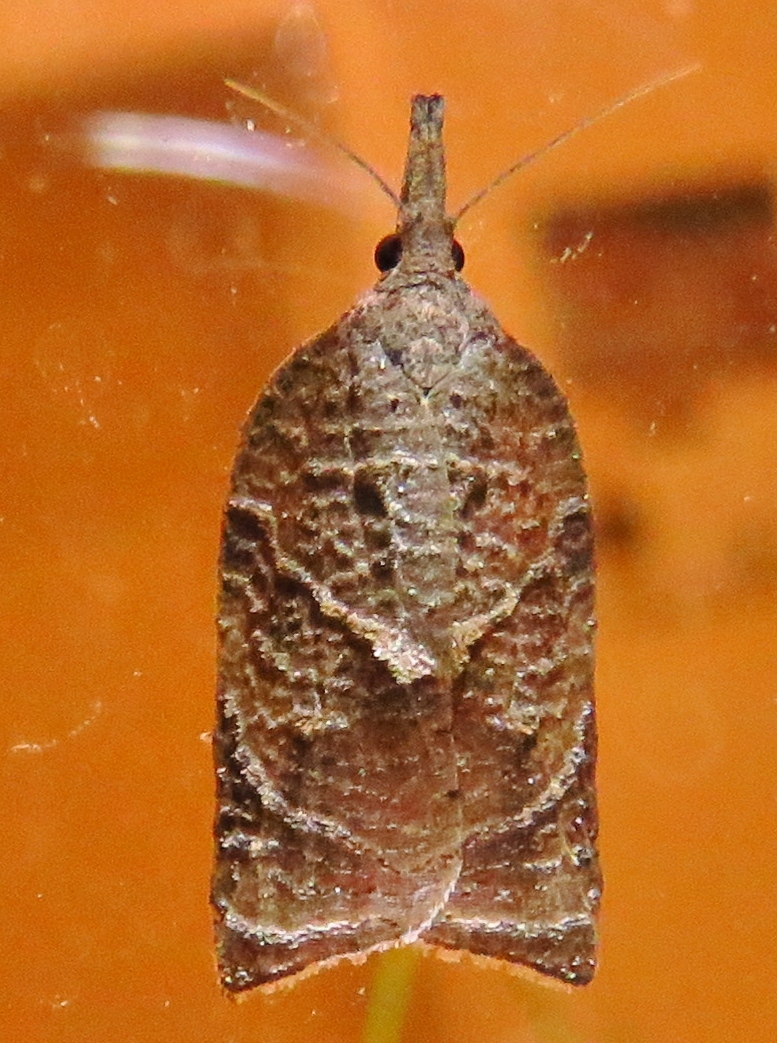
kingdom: Animalia
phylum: Arthropoda
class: Insecta
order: Lepidoptera
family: Tortricidae
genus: Platynota
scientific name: Platynota rostrana
